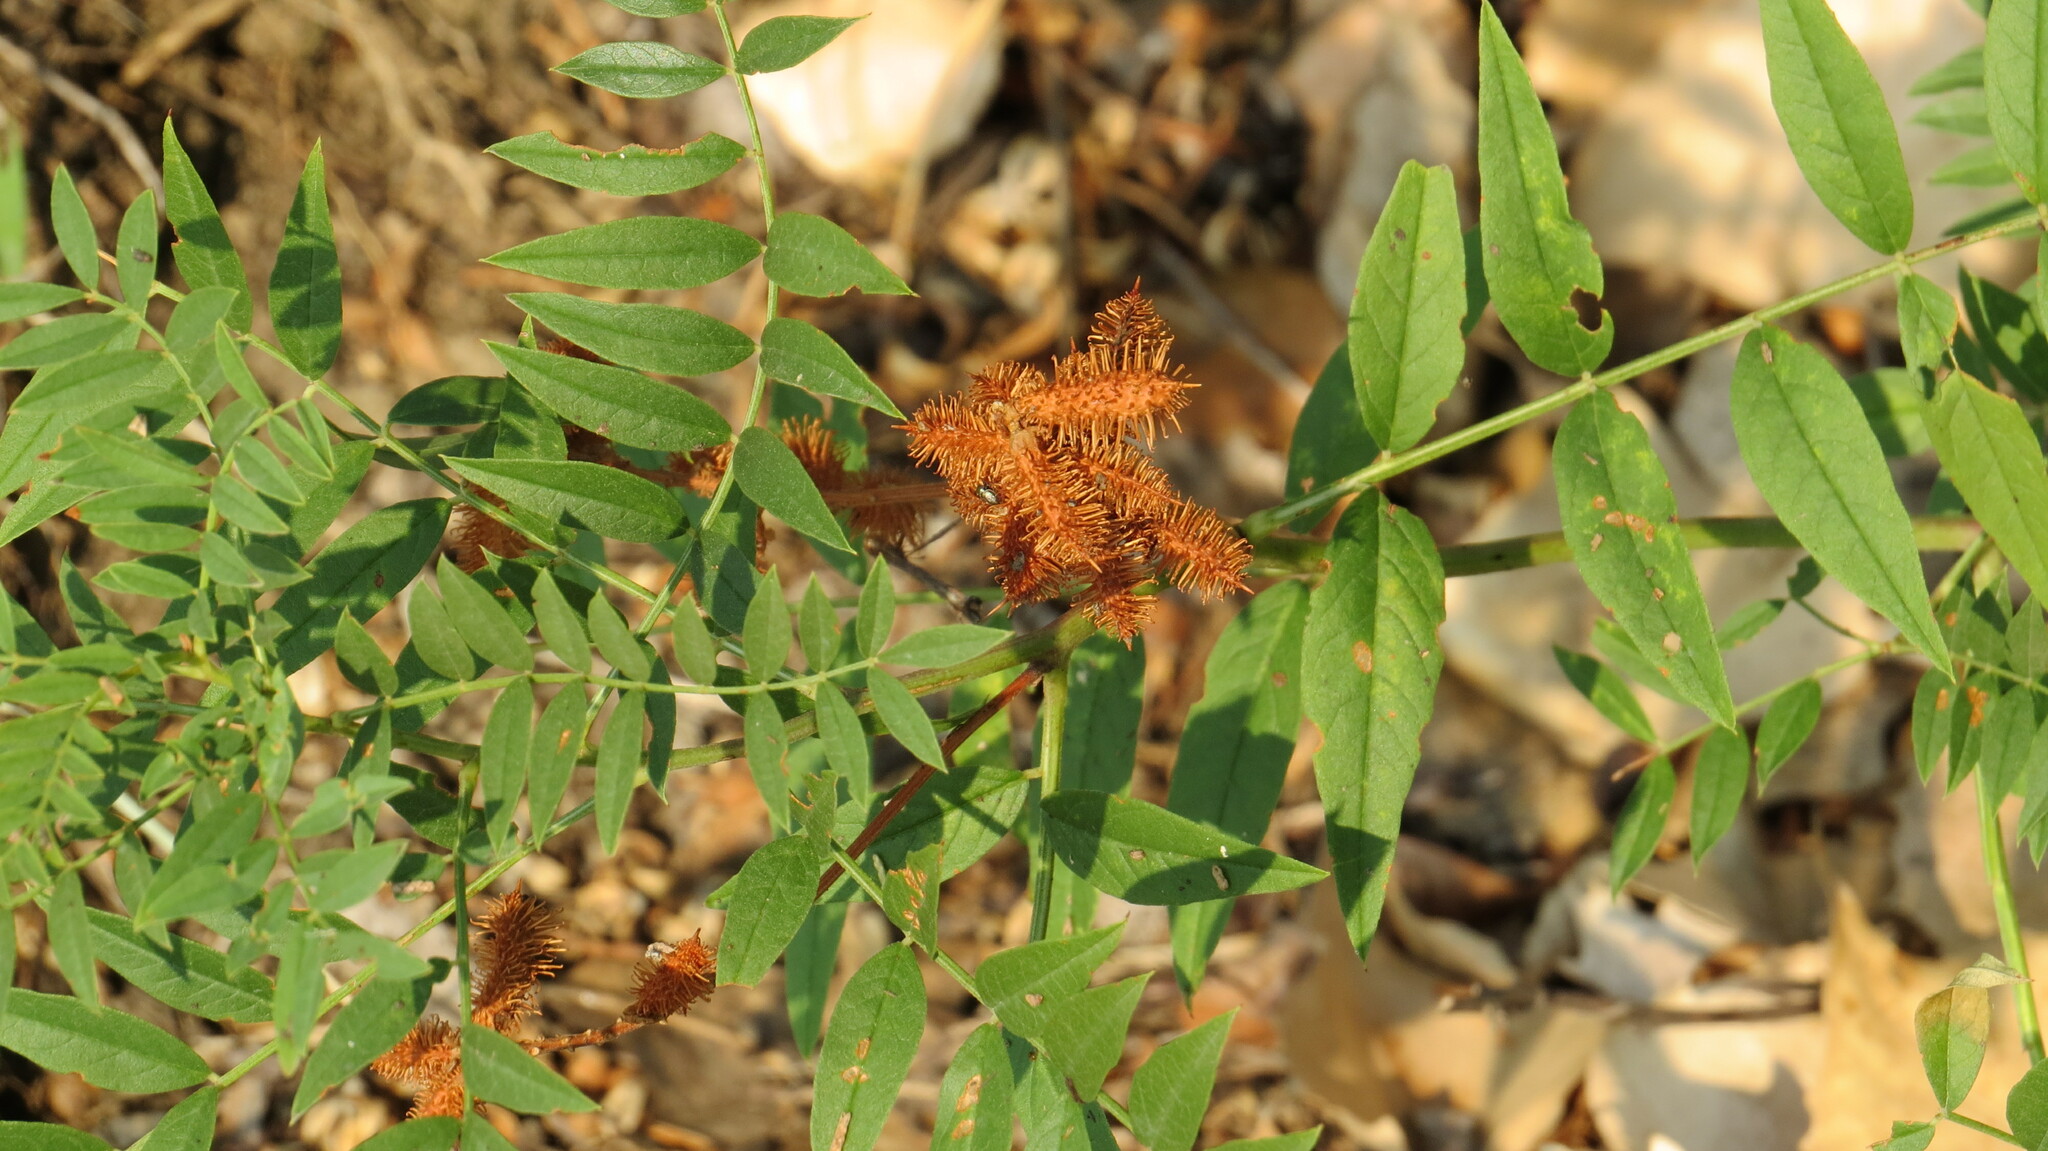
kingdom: Plantae
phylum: Tracheophyta
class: Magnoliopsida
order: Fabales
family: Fabaceae
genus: Glycyrrhiza
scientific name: Glycyrrhiza lepidota
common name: American liquorice
